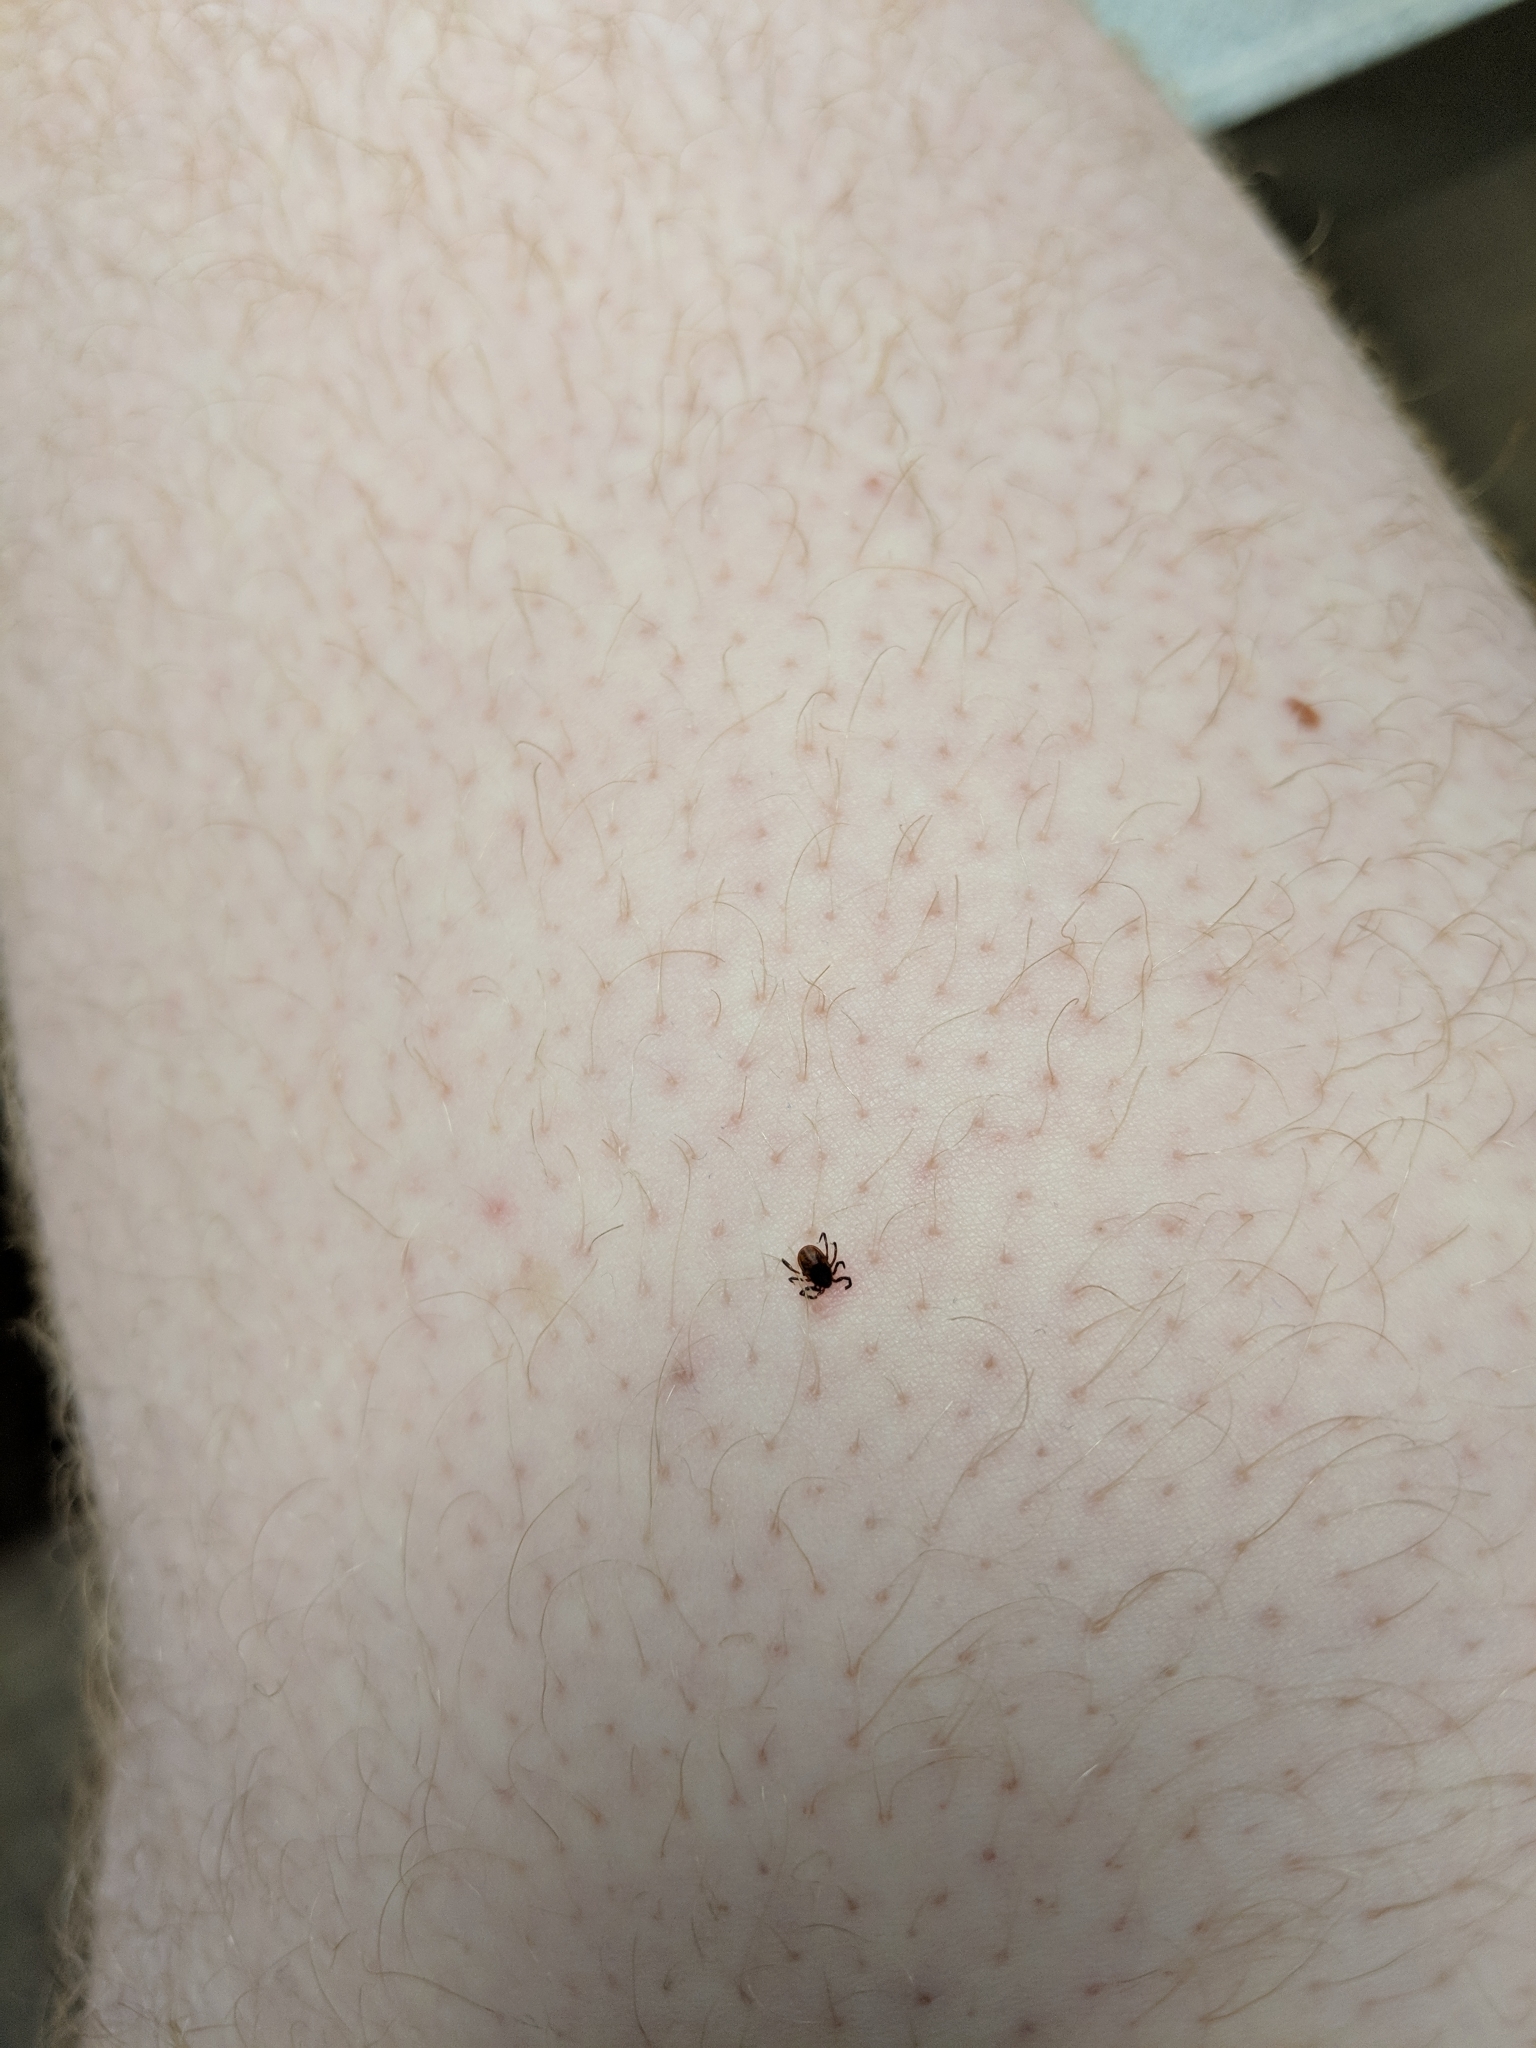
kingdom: Animalia
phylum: Arthropoda
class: Arachnida
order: Ixodida
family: Ixodidae
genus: Ixodes
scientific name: Ixodes scapularis
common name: Black legged tick
